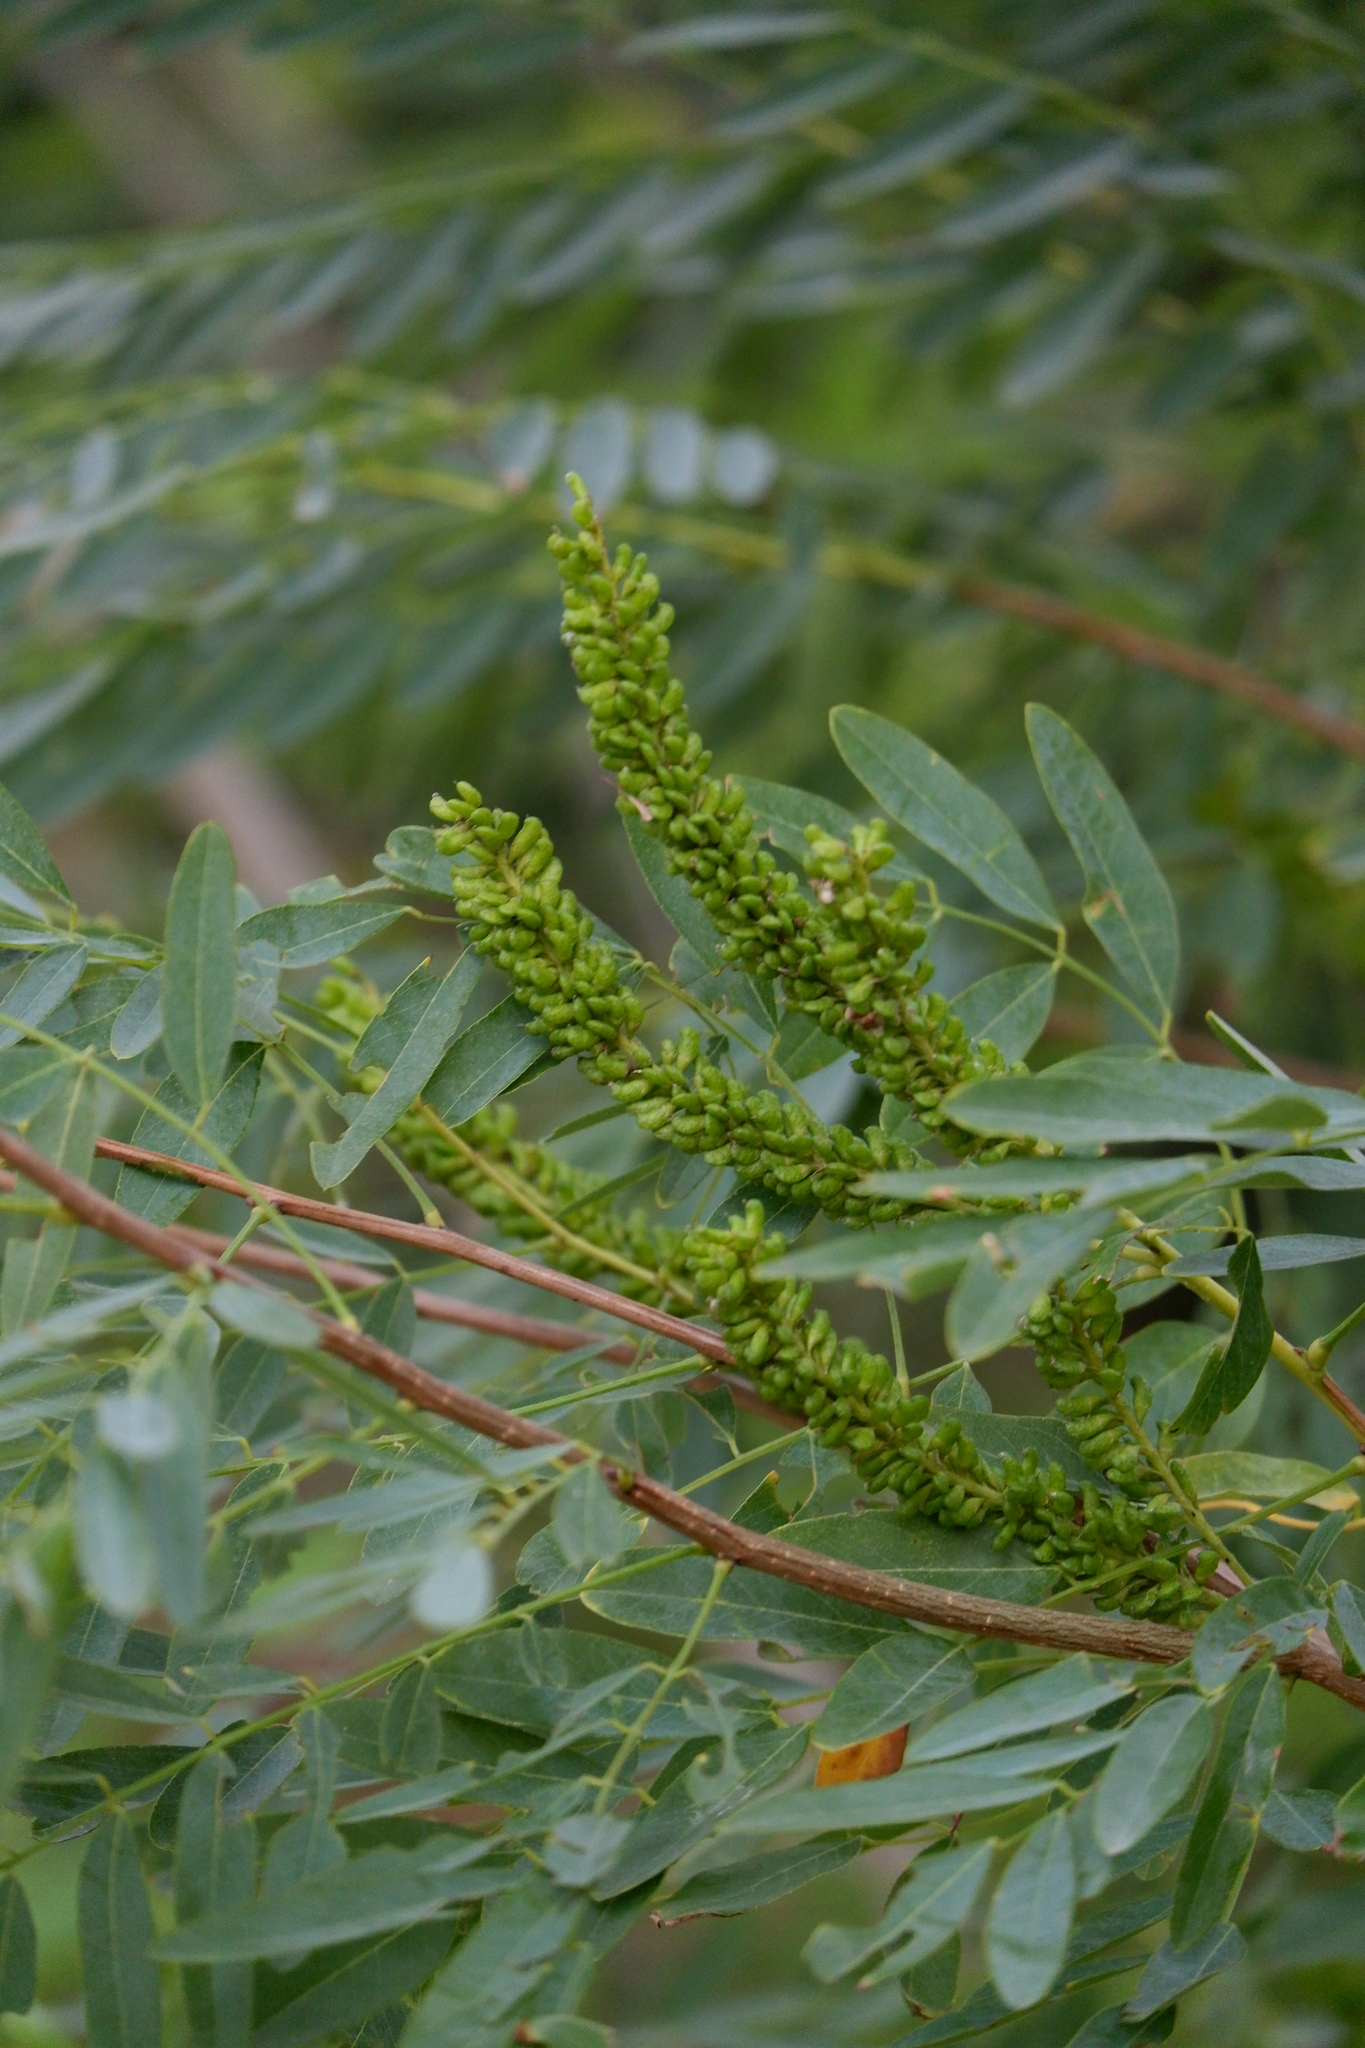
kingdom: Plantae
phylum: Tracheophyta
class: Magnoliopsida
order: Fabales
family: Fabaceae
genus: Amorpha
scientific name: Amorpha fruticosa
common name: False indigo
